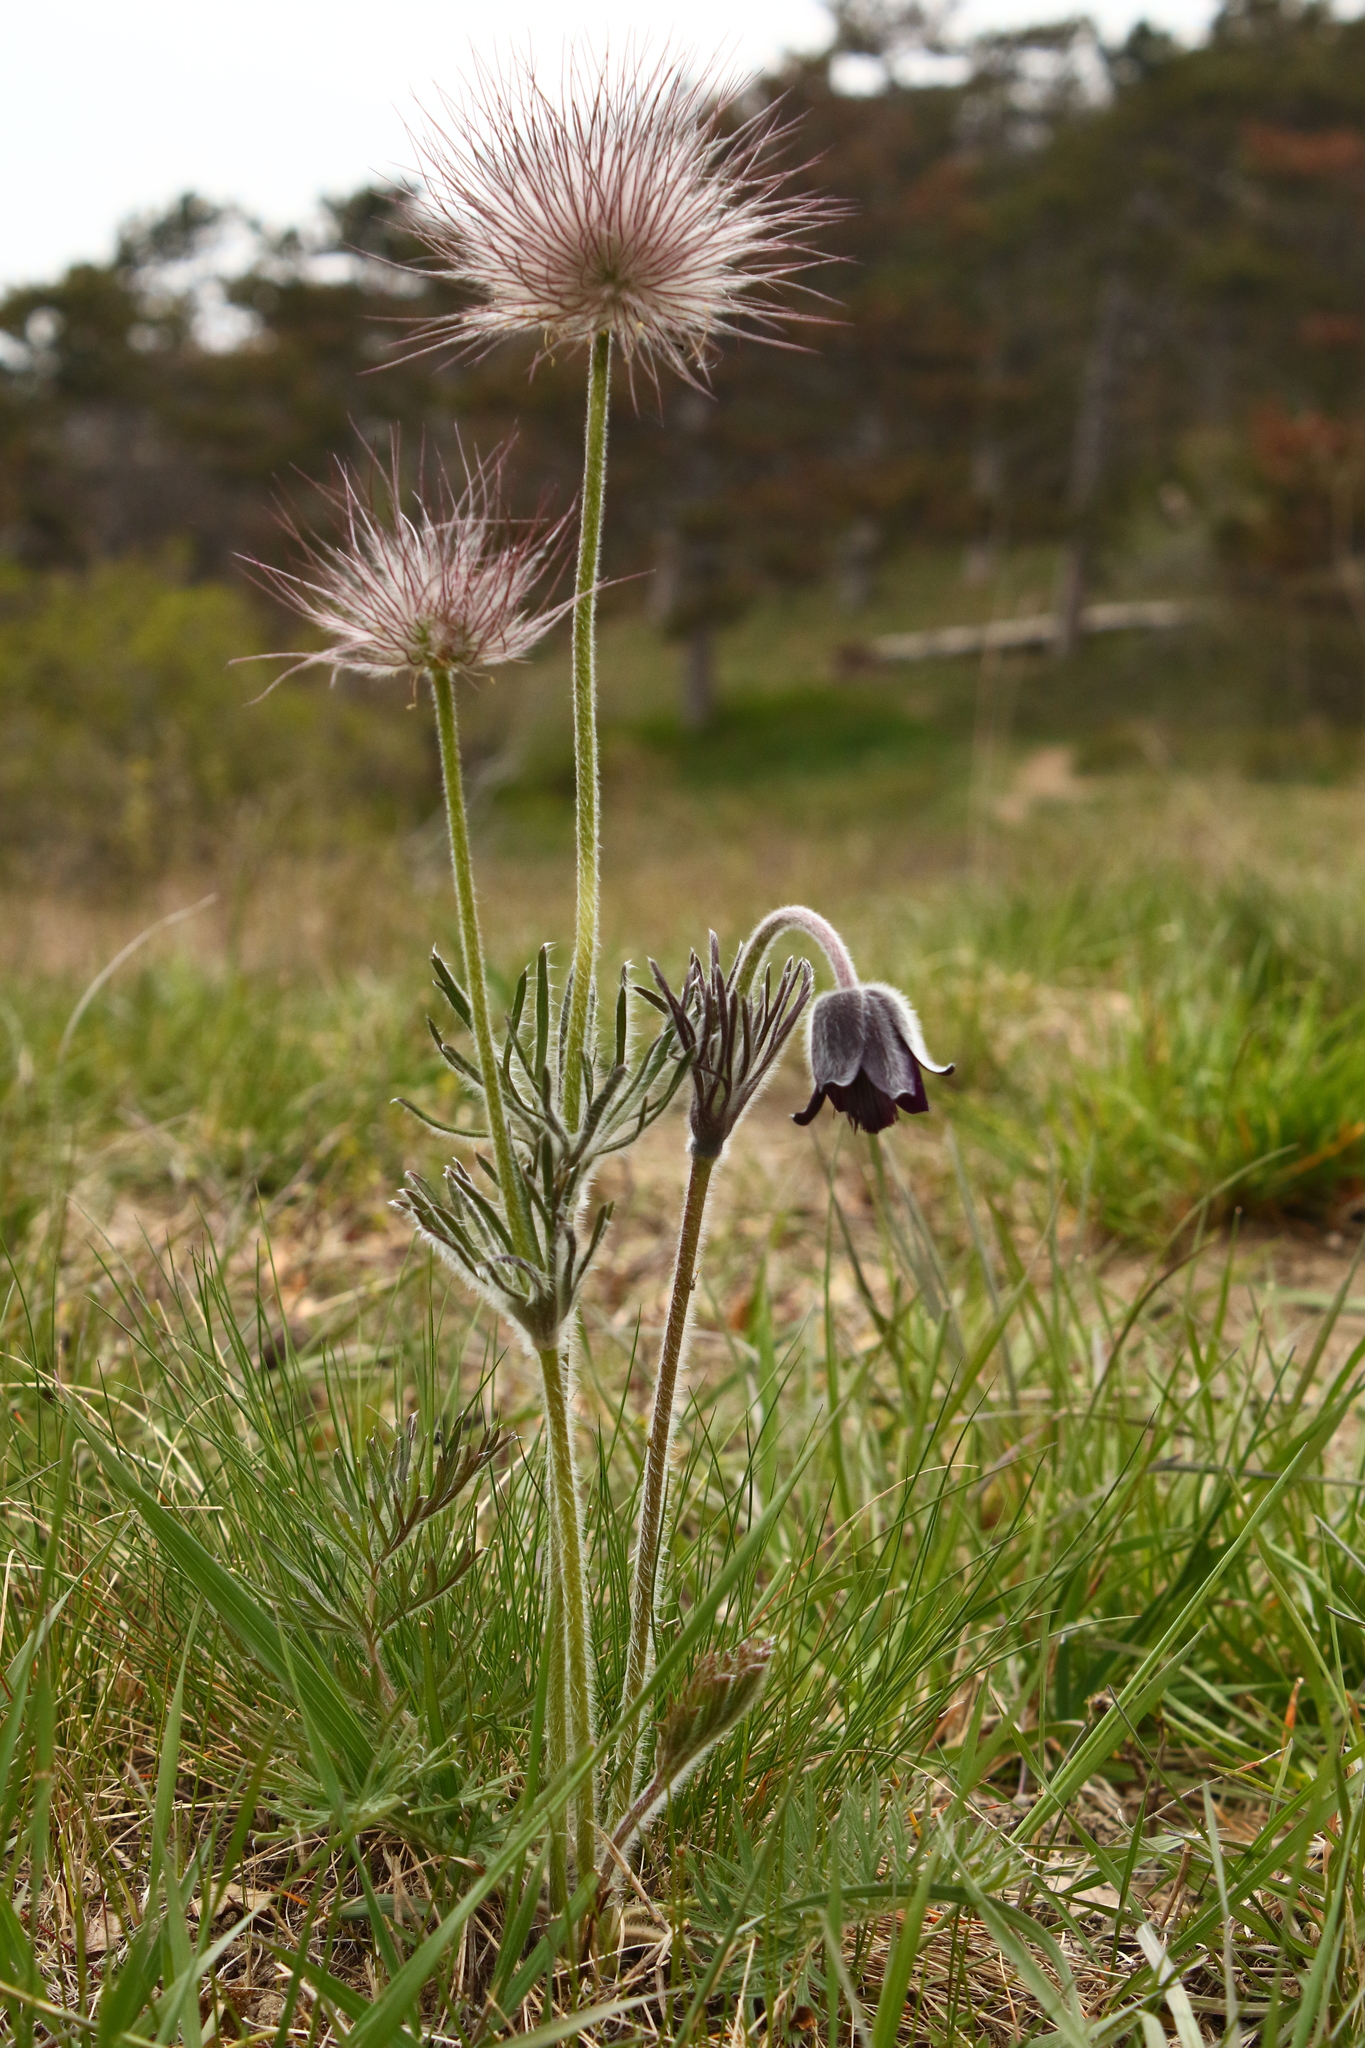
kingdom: Plantae
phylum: Tracheophyta
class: Magnoliopsida
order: Ranunculales
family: Ranunculaceae
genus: Pulsatilla
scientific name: Pulsatilla pratensis
